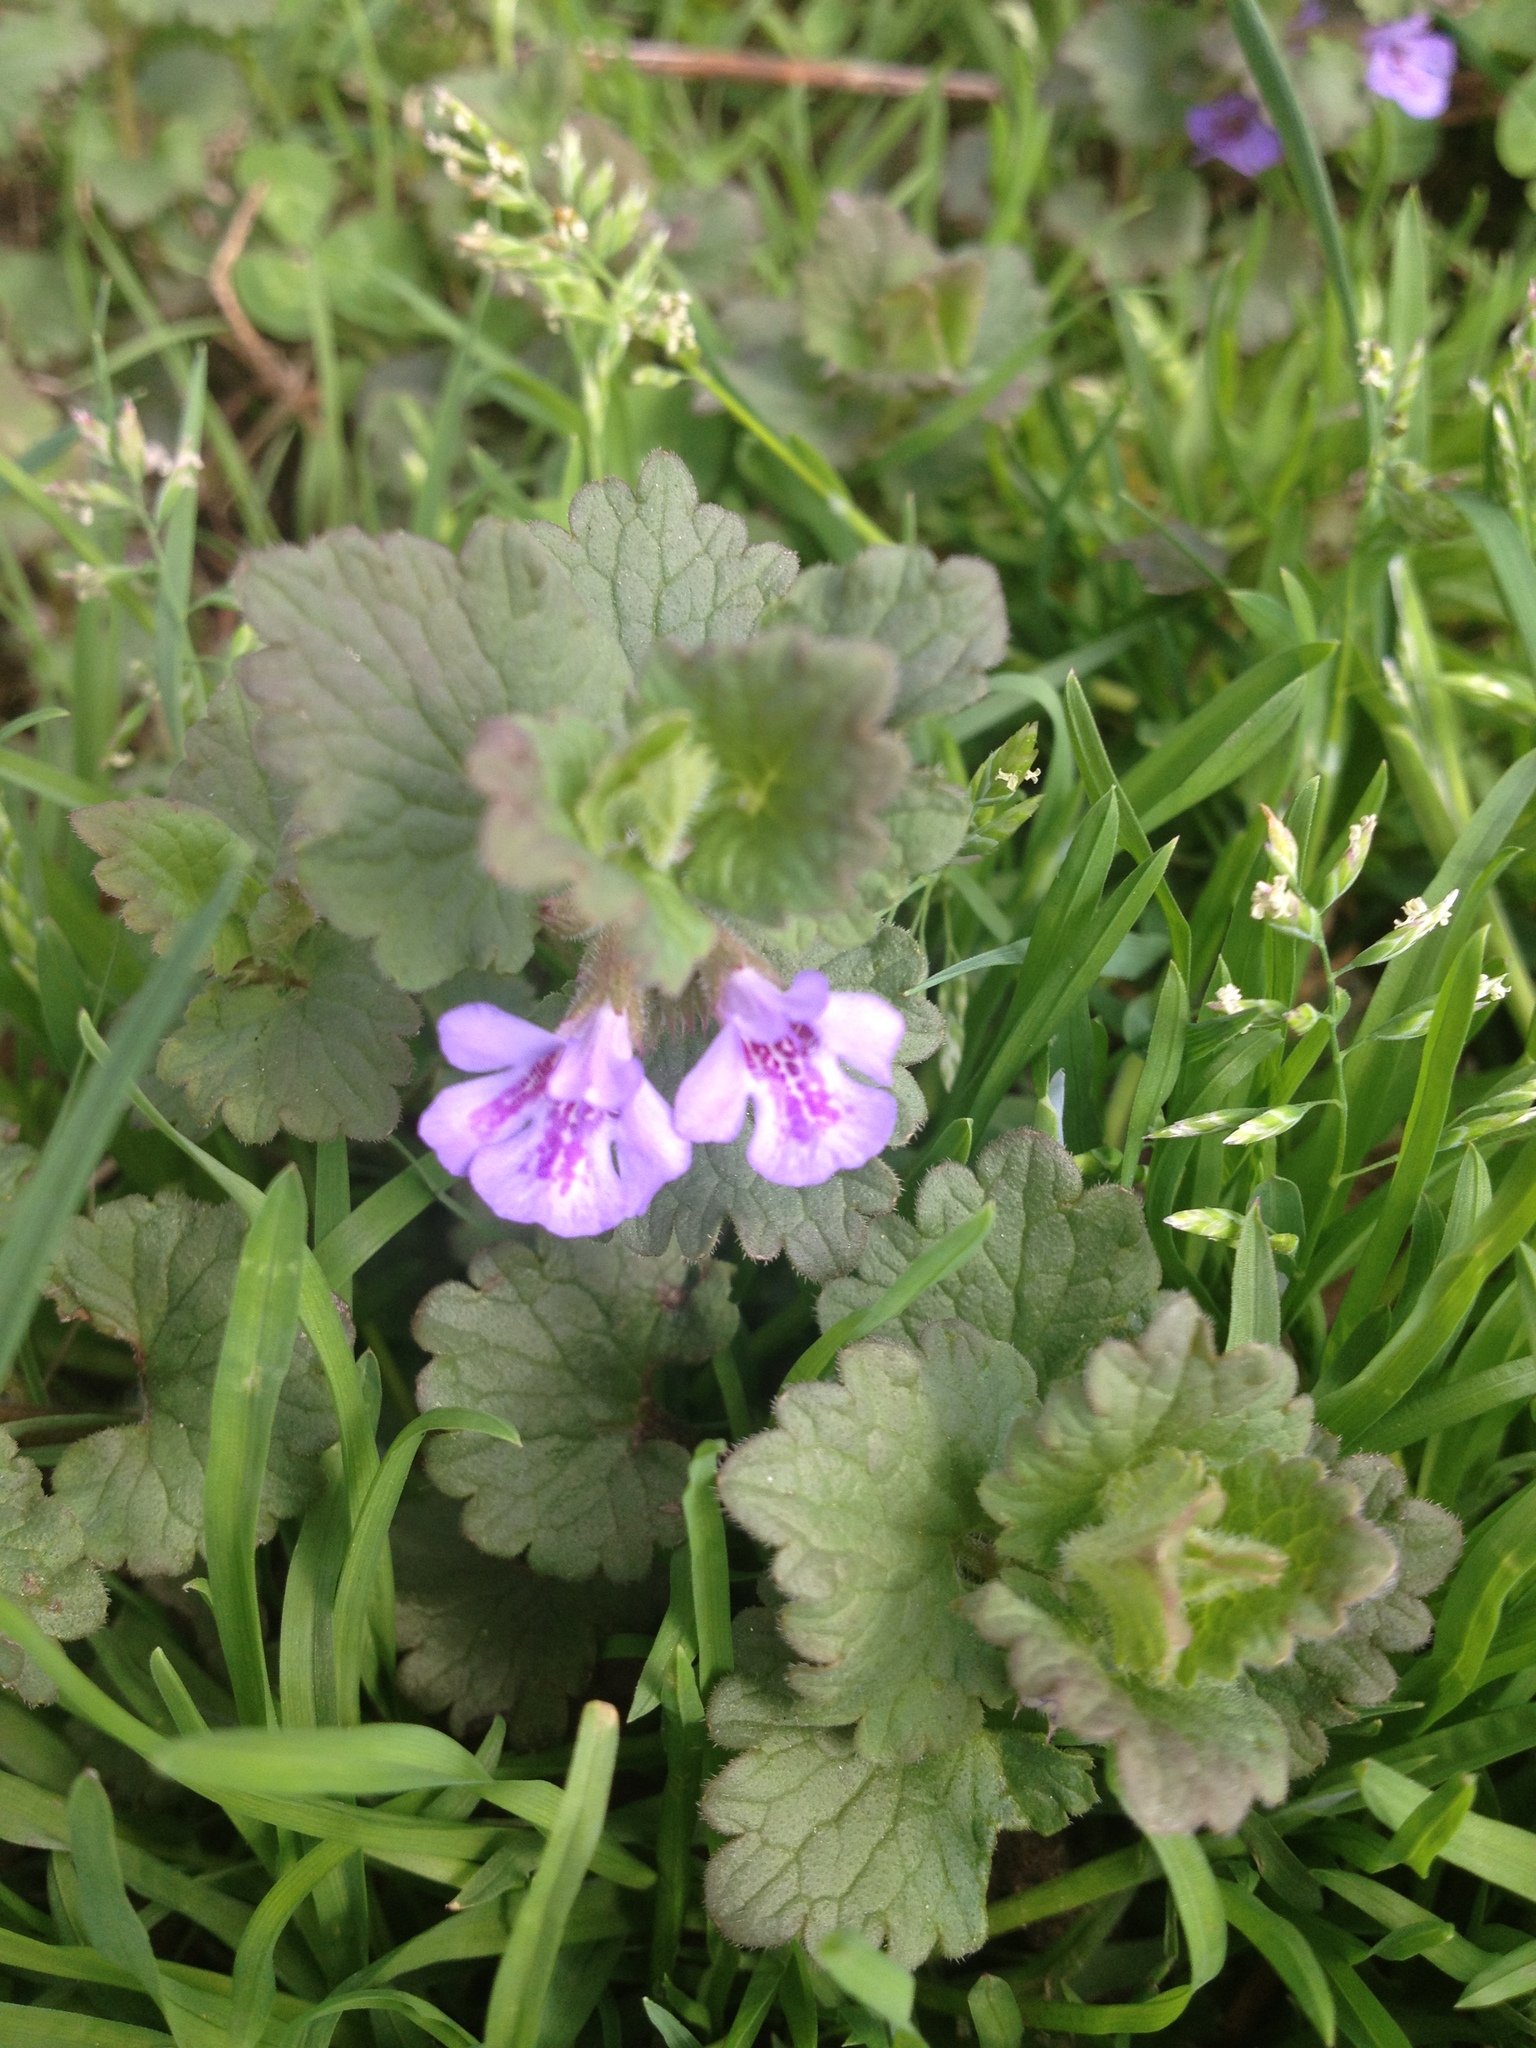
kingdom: Plantae
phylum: Tracheophyta
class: Magnoliopsida
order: Lamiales
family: Lamiaceae
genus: Glechoma
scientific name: Glechoma hederacea
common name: Ground ivy
